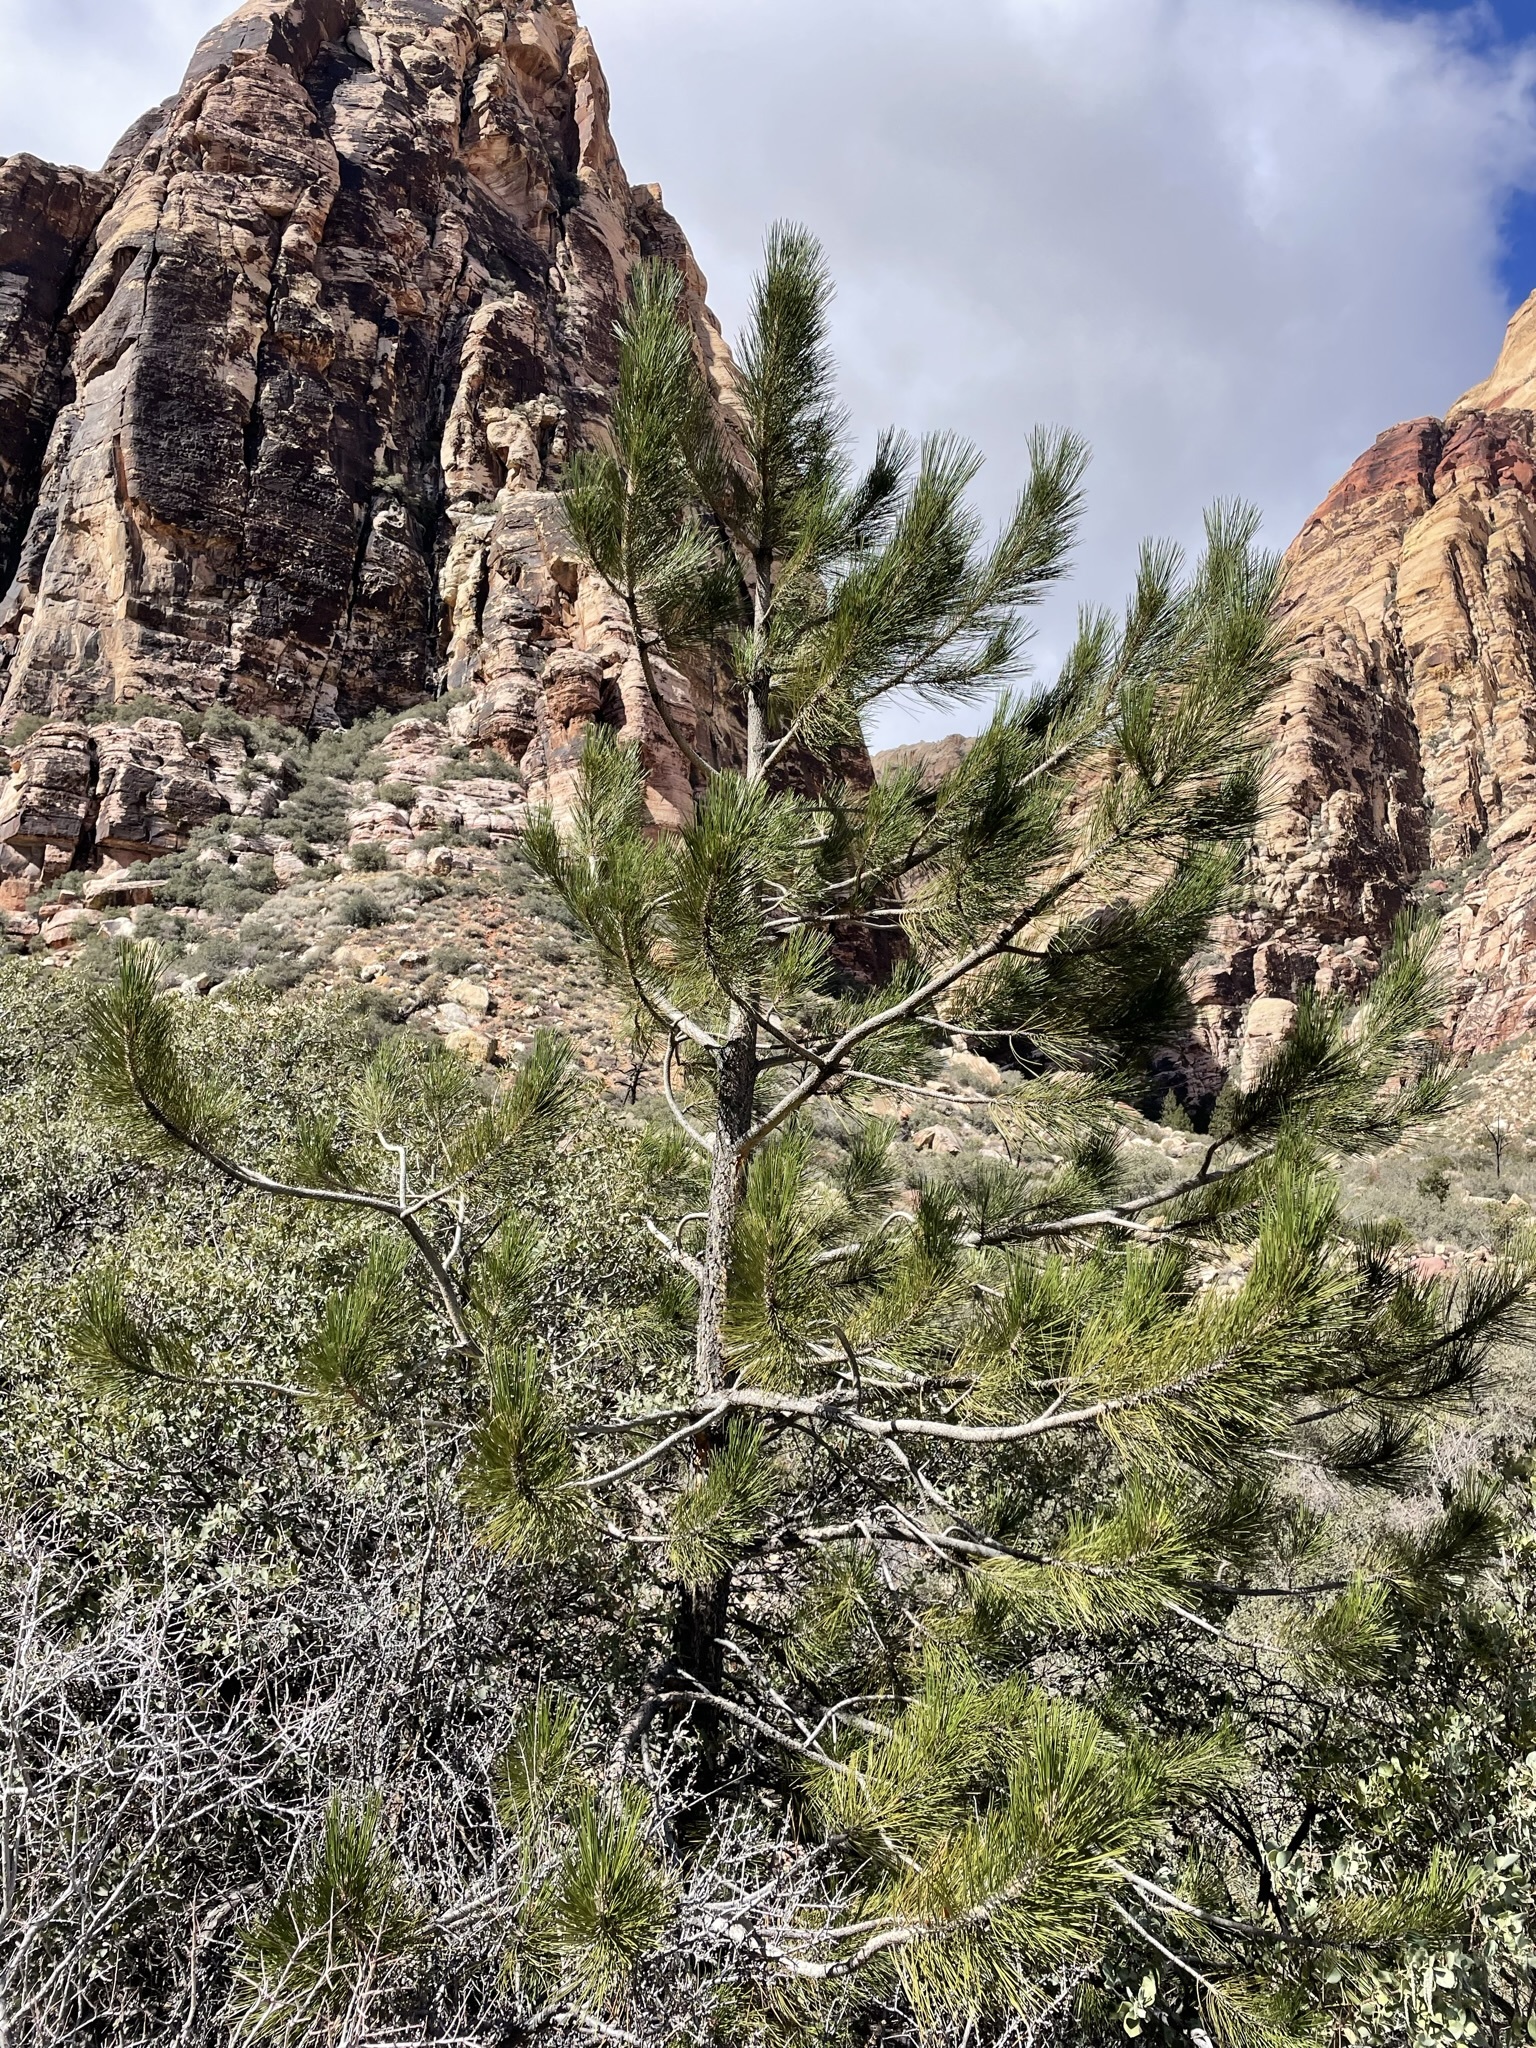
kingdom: Plantae
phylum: Tracheophyta
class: Pinopsida
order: Pinales
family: Pinaceae
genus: Pinus
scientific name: Pinus ponderosa
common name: Western yellow-pine
